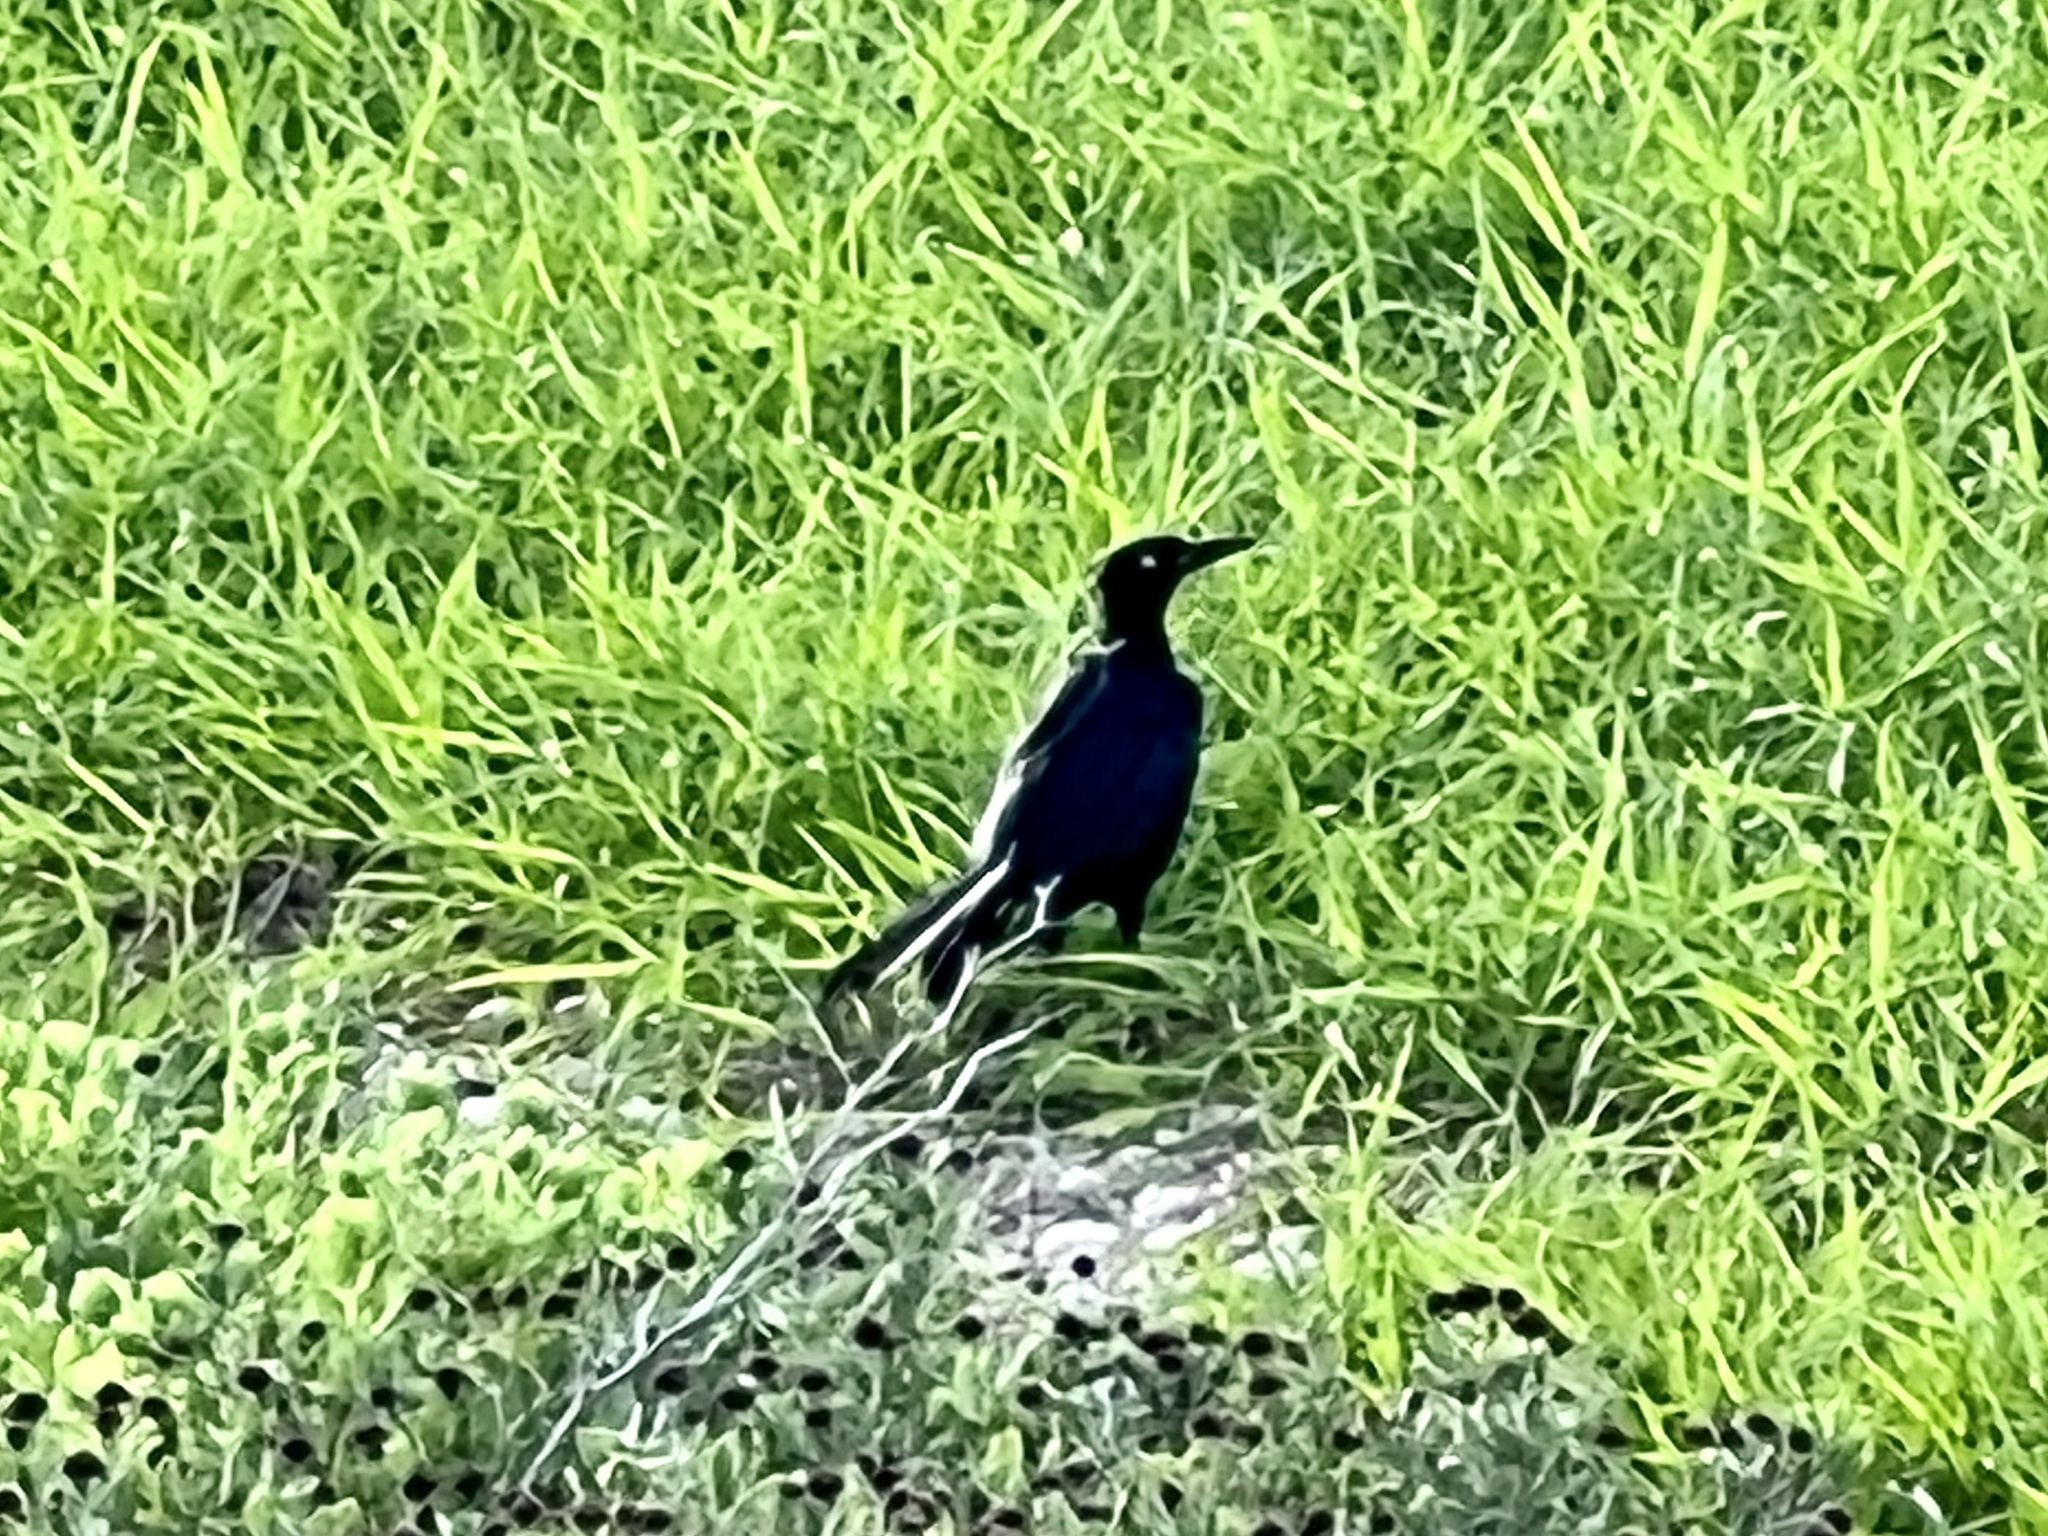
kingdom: Animalia
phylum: Chordata
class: Aves
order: Passeriformes
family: Icteridae
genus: Quiscalus
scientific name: Quiscalus mexicanus
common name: Great-tailed grackle
